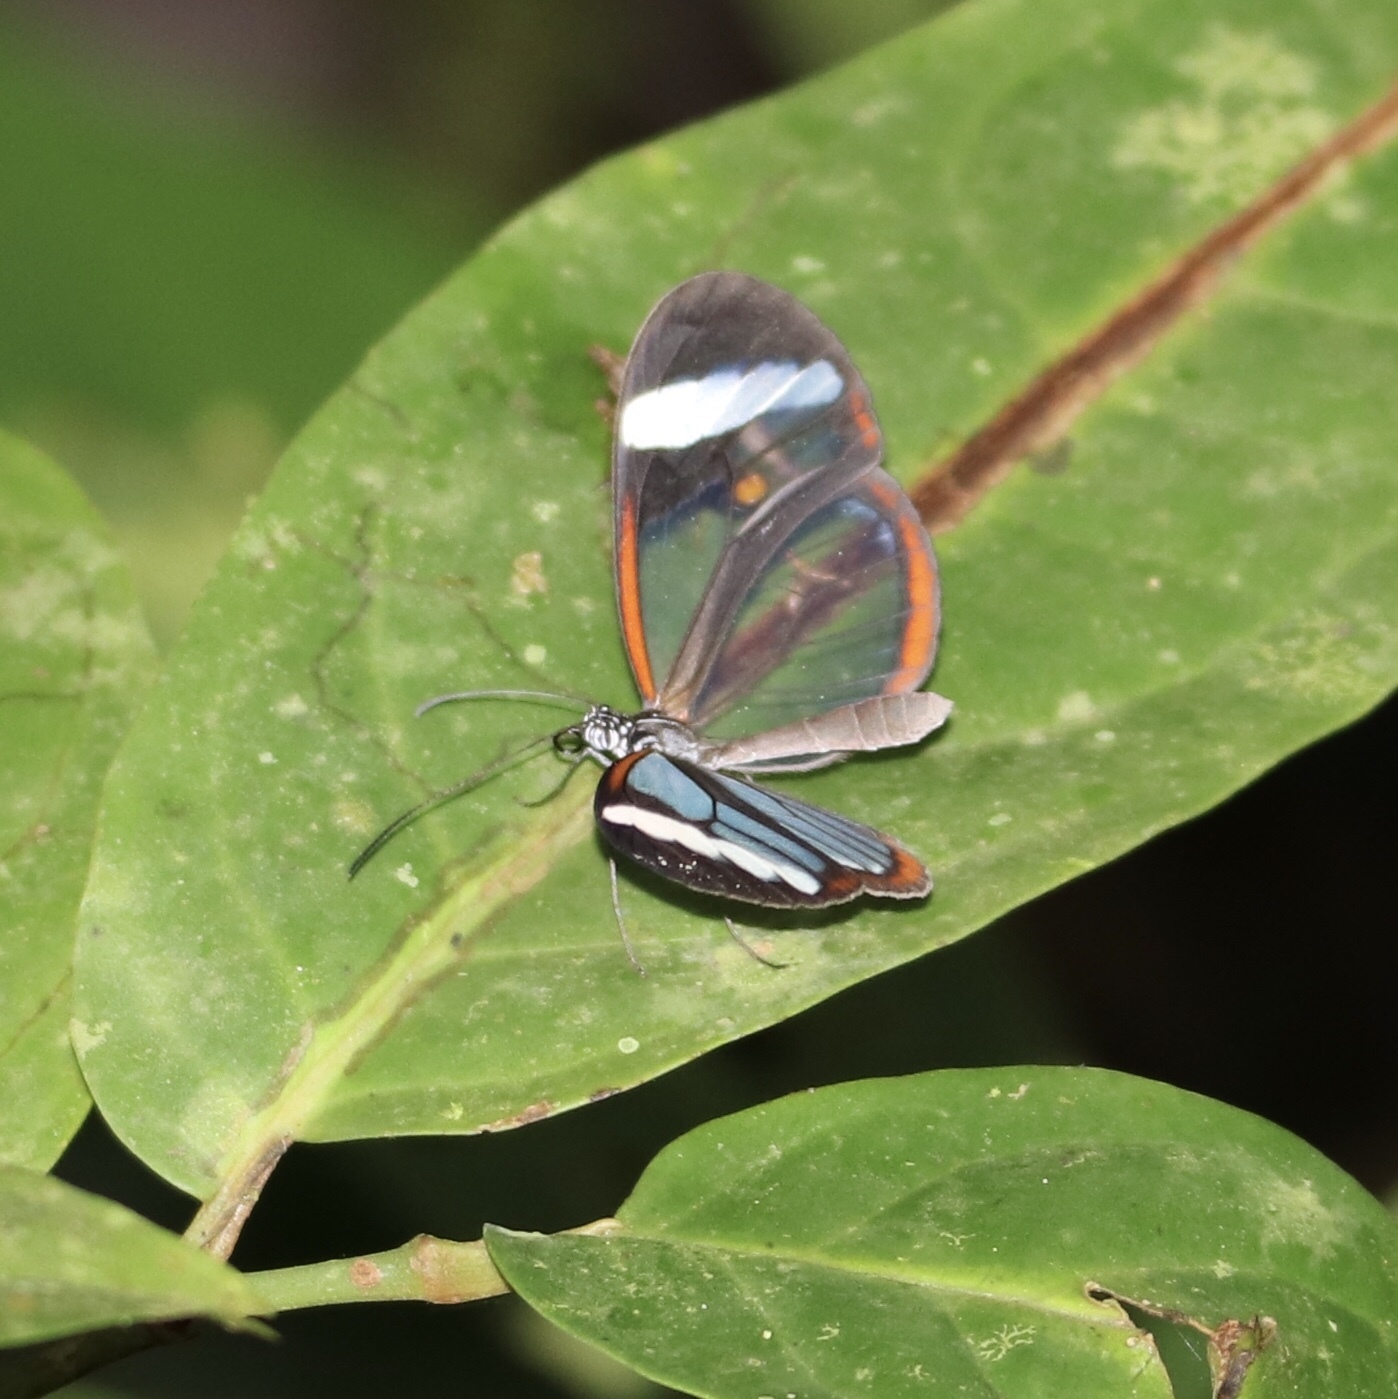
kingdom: Animalia
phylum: Arthropoda
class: Insecta
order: Lepidoptera
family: Nymphalidae
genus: Oleria
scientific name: Oleria paula
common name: Paula's clearwing
